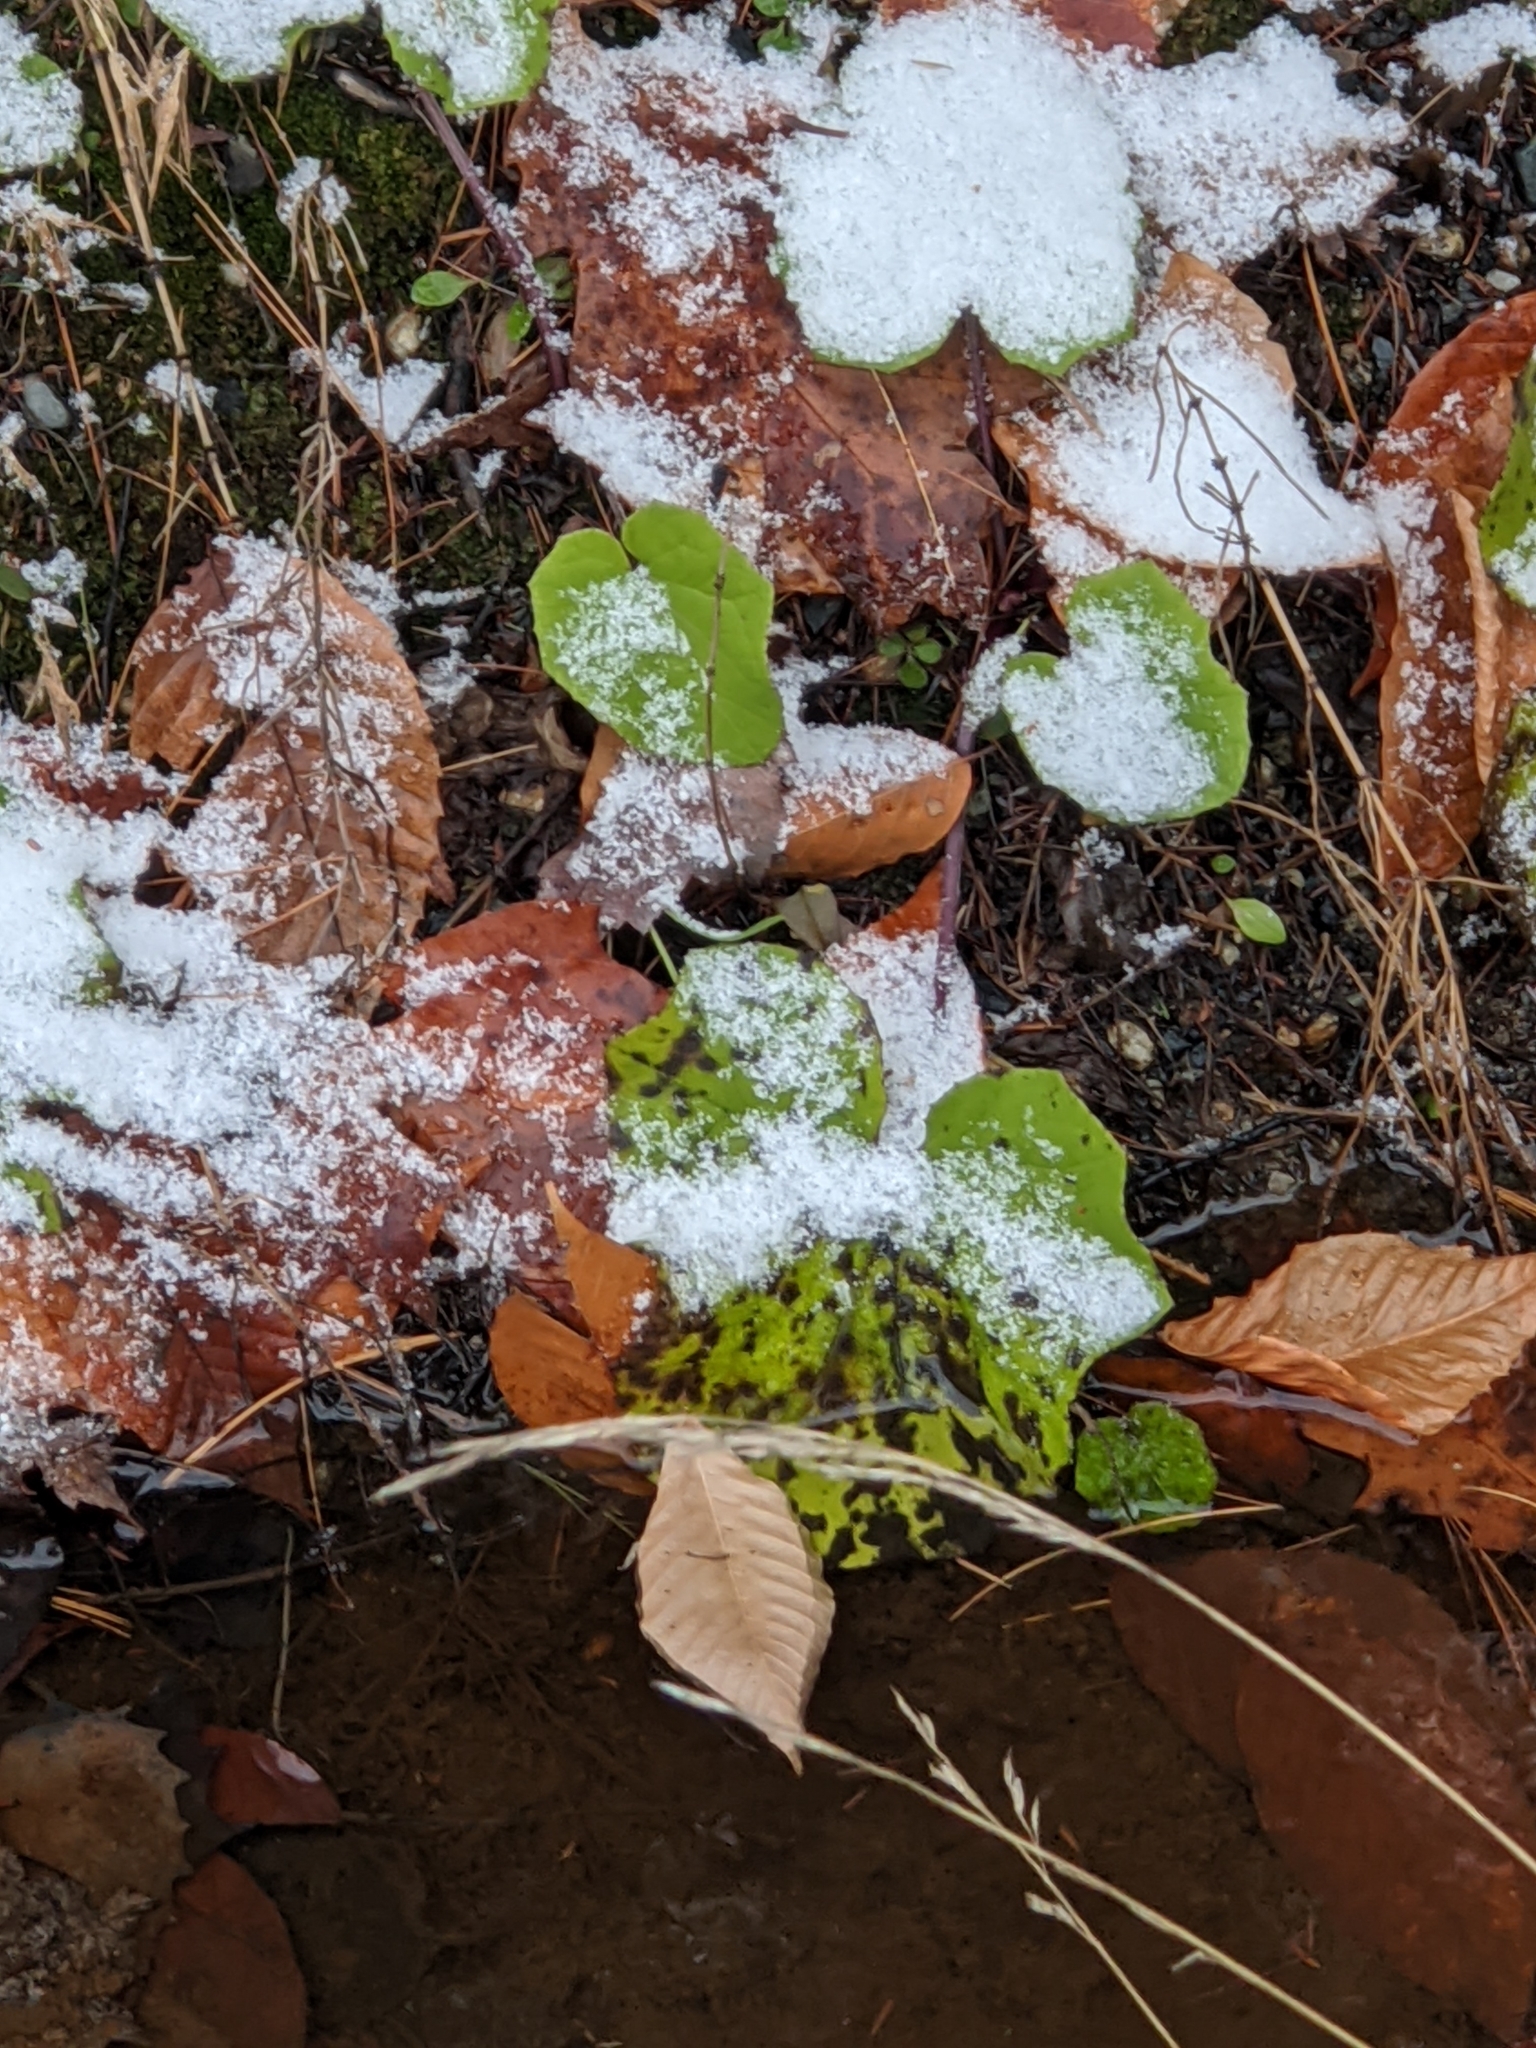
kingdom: Plantae
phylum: Tracheophyta
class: Magnoliopsida
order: Asterales
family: Asteraceae
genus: Tussilago
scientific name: Tussilago farfara
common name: Coltsfoot
